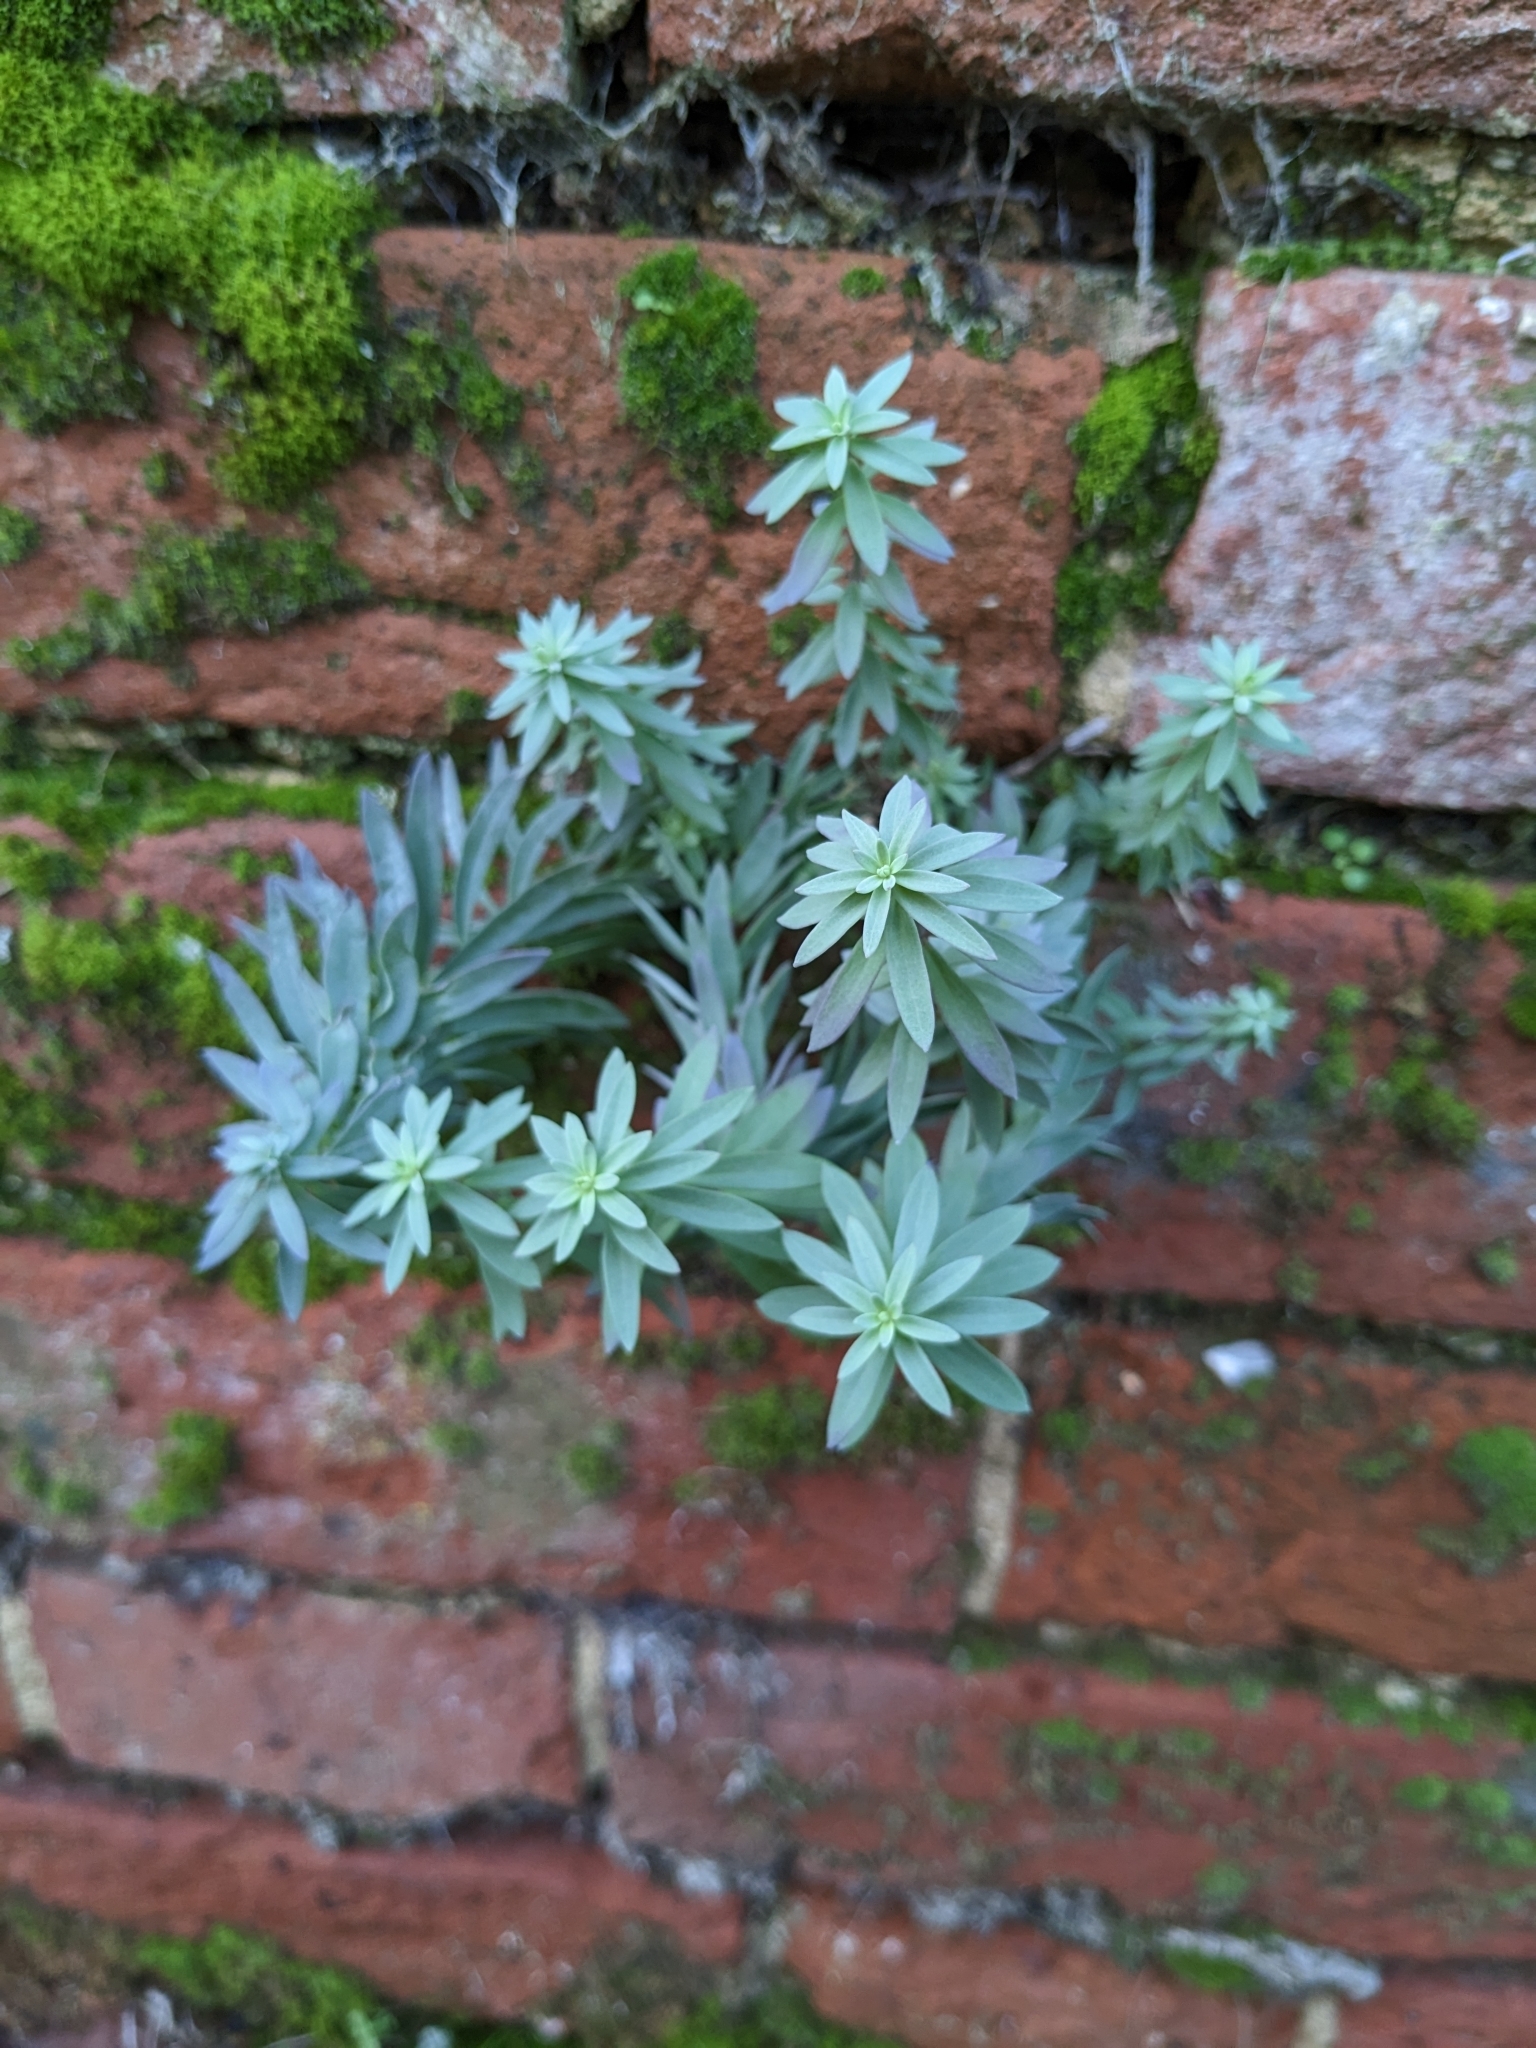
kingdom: Plantae
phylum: Tracheophyta
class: Magnoliopsida
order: Lamiales
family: Plantaginaceae
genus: Linaria
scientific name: Linaria purpurea
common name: Purple toadflax
